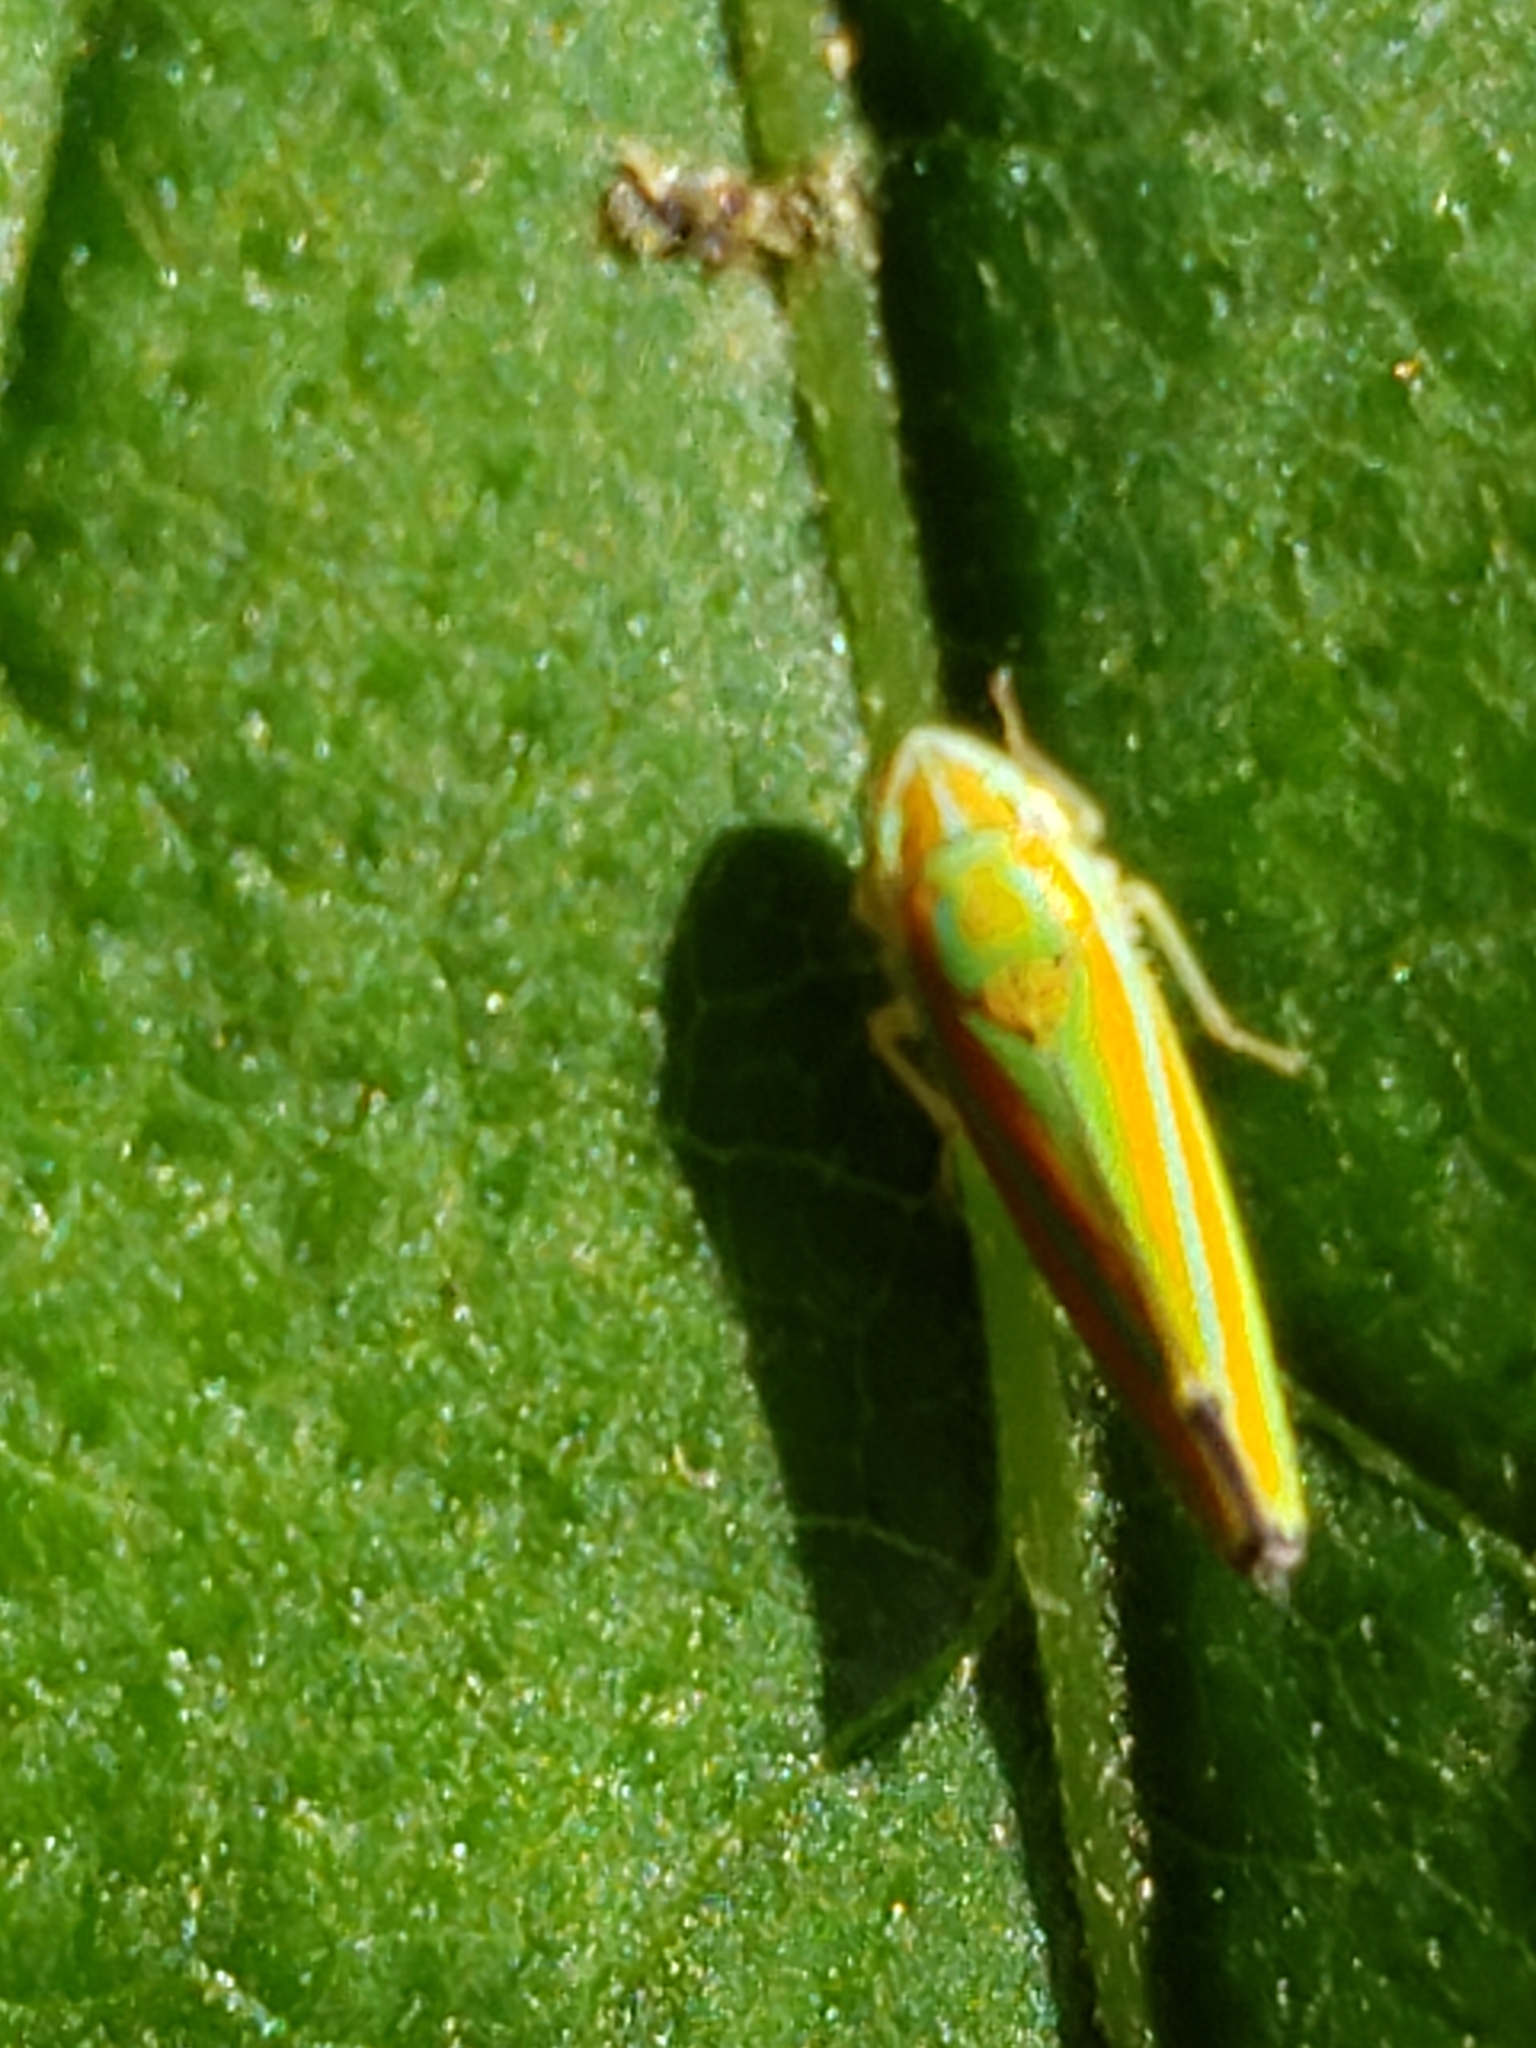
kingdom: Animalia
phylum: Arthropoda
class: Insecta
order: Hemiptera
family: Cicadellidae
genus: Graphocephala
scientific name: Graphocephala versuta
